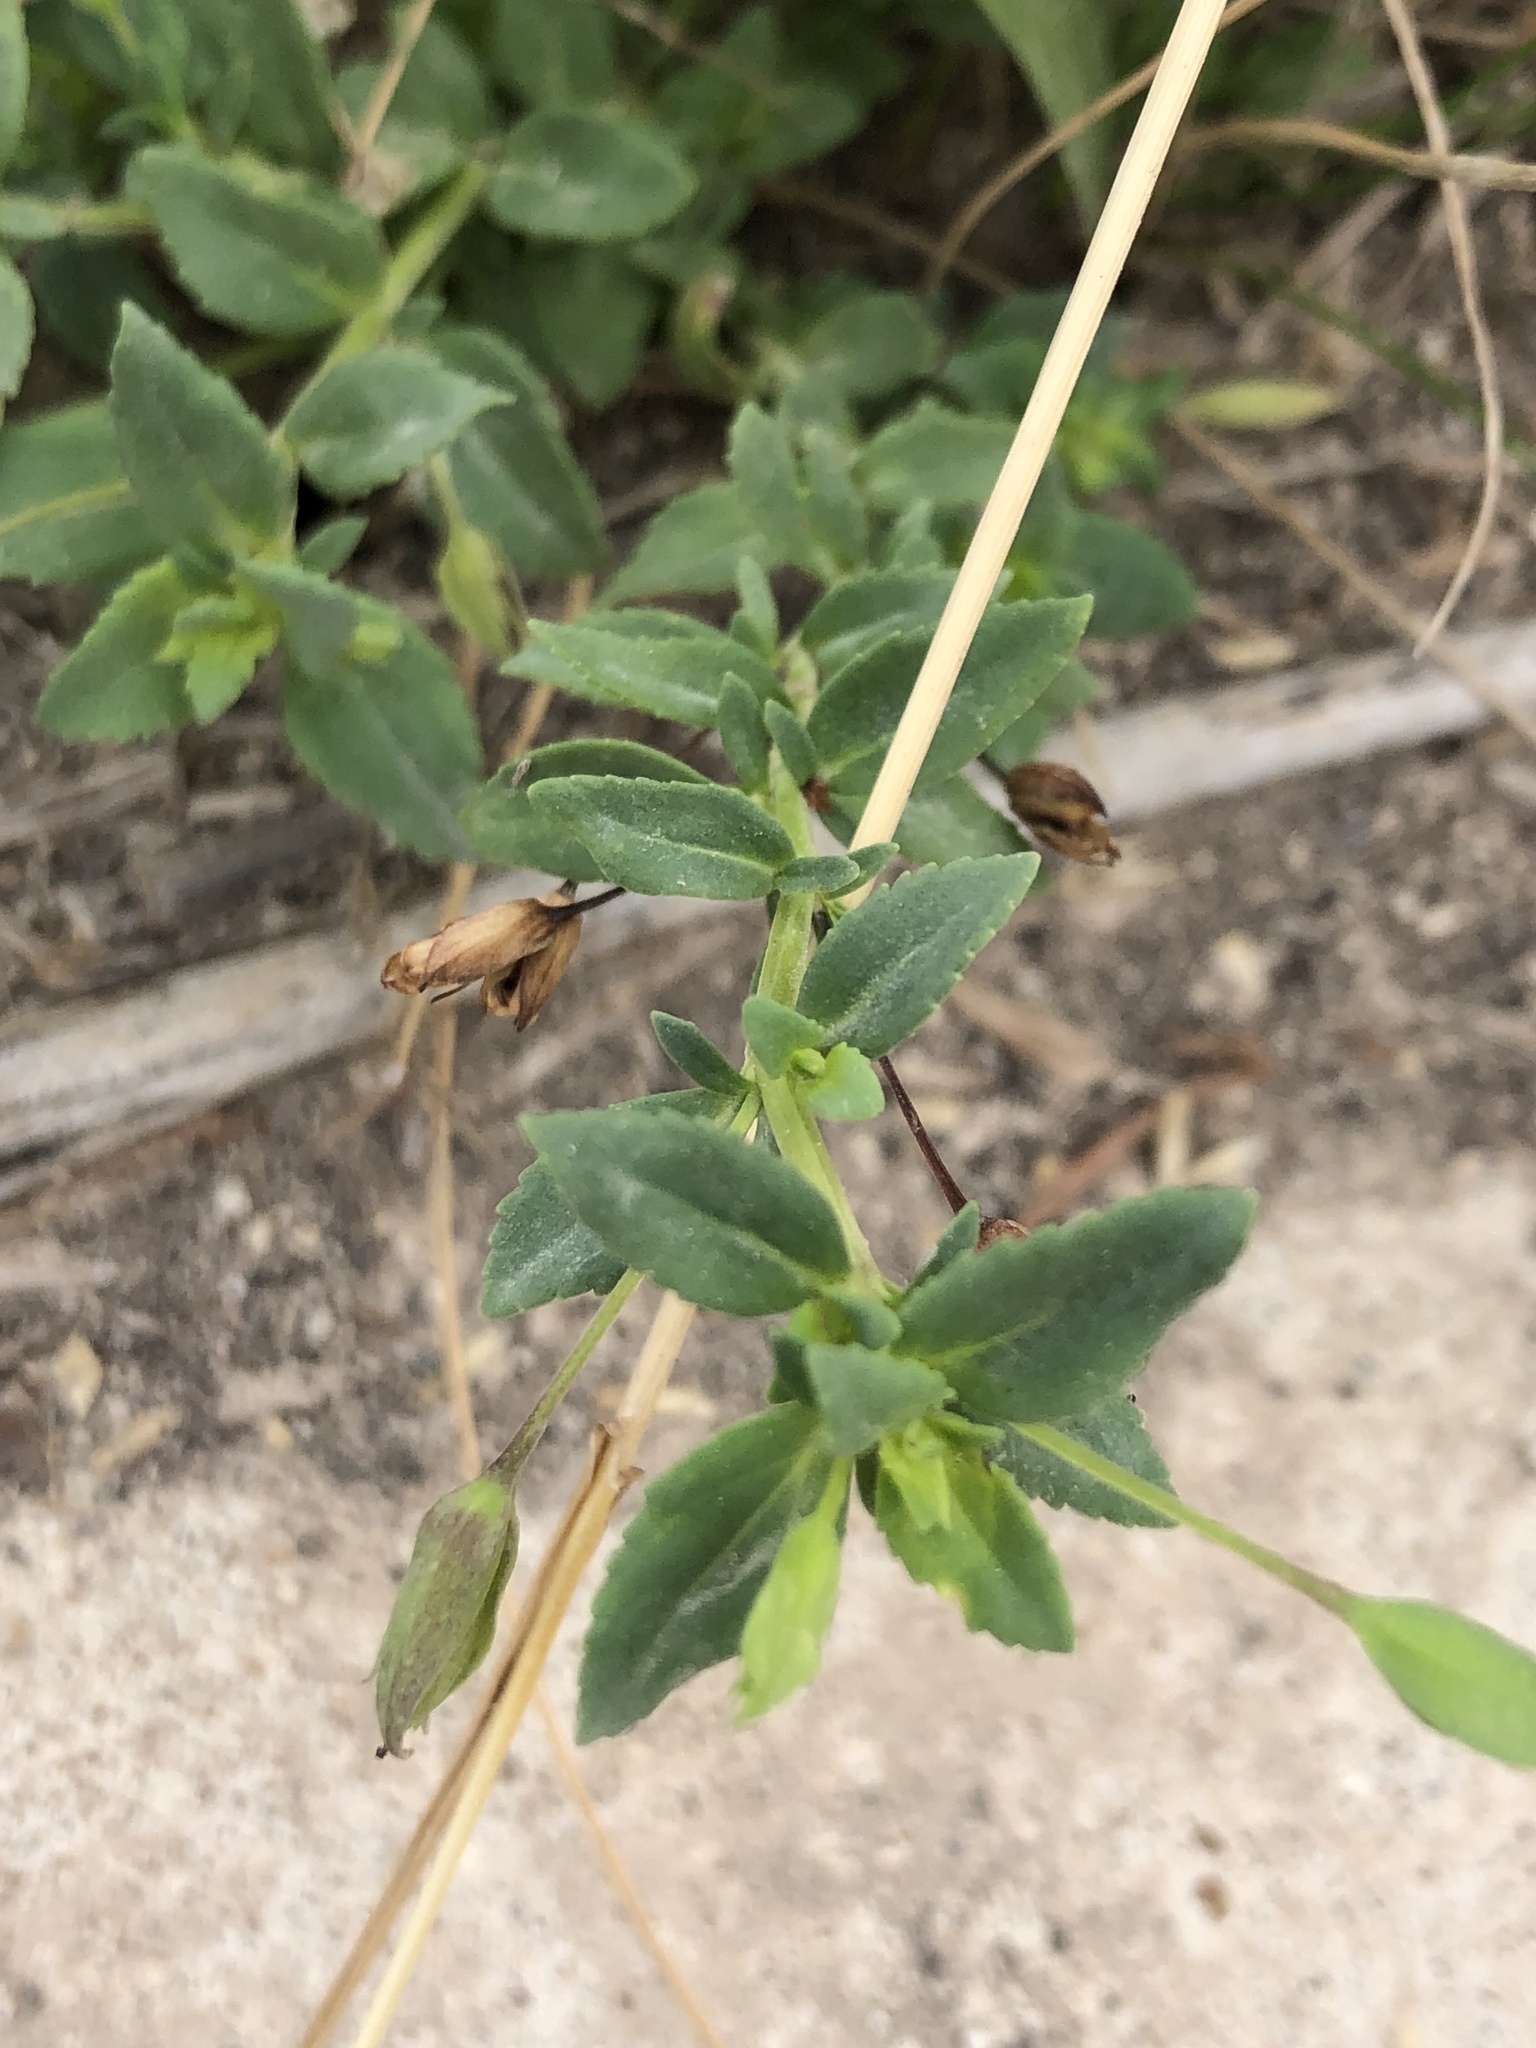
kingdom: Plantae
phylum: Tracheophyta
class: Magnoliopsida
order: Lamiales
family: Plantaginaceae
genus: Mecardonia
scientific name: Mecardonia procumbens
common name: Baby jump-up
